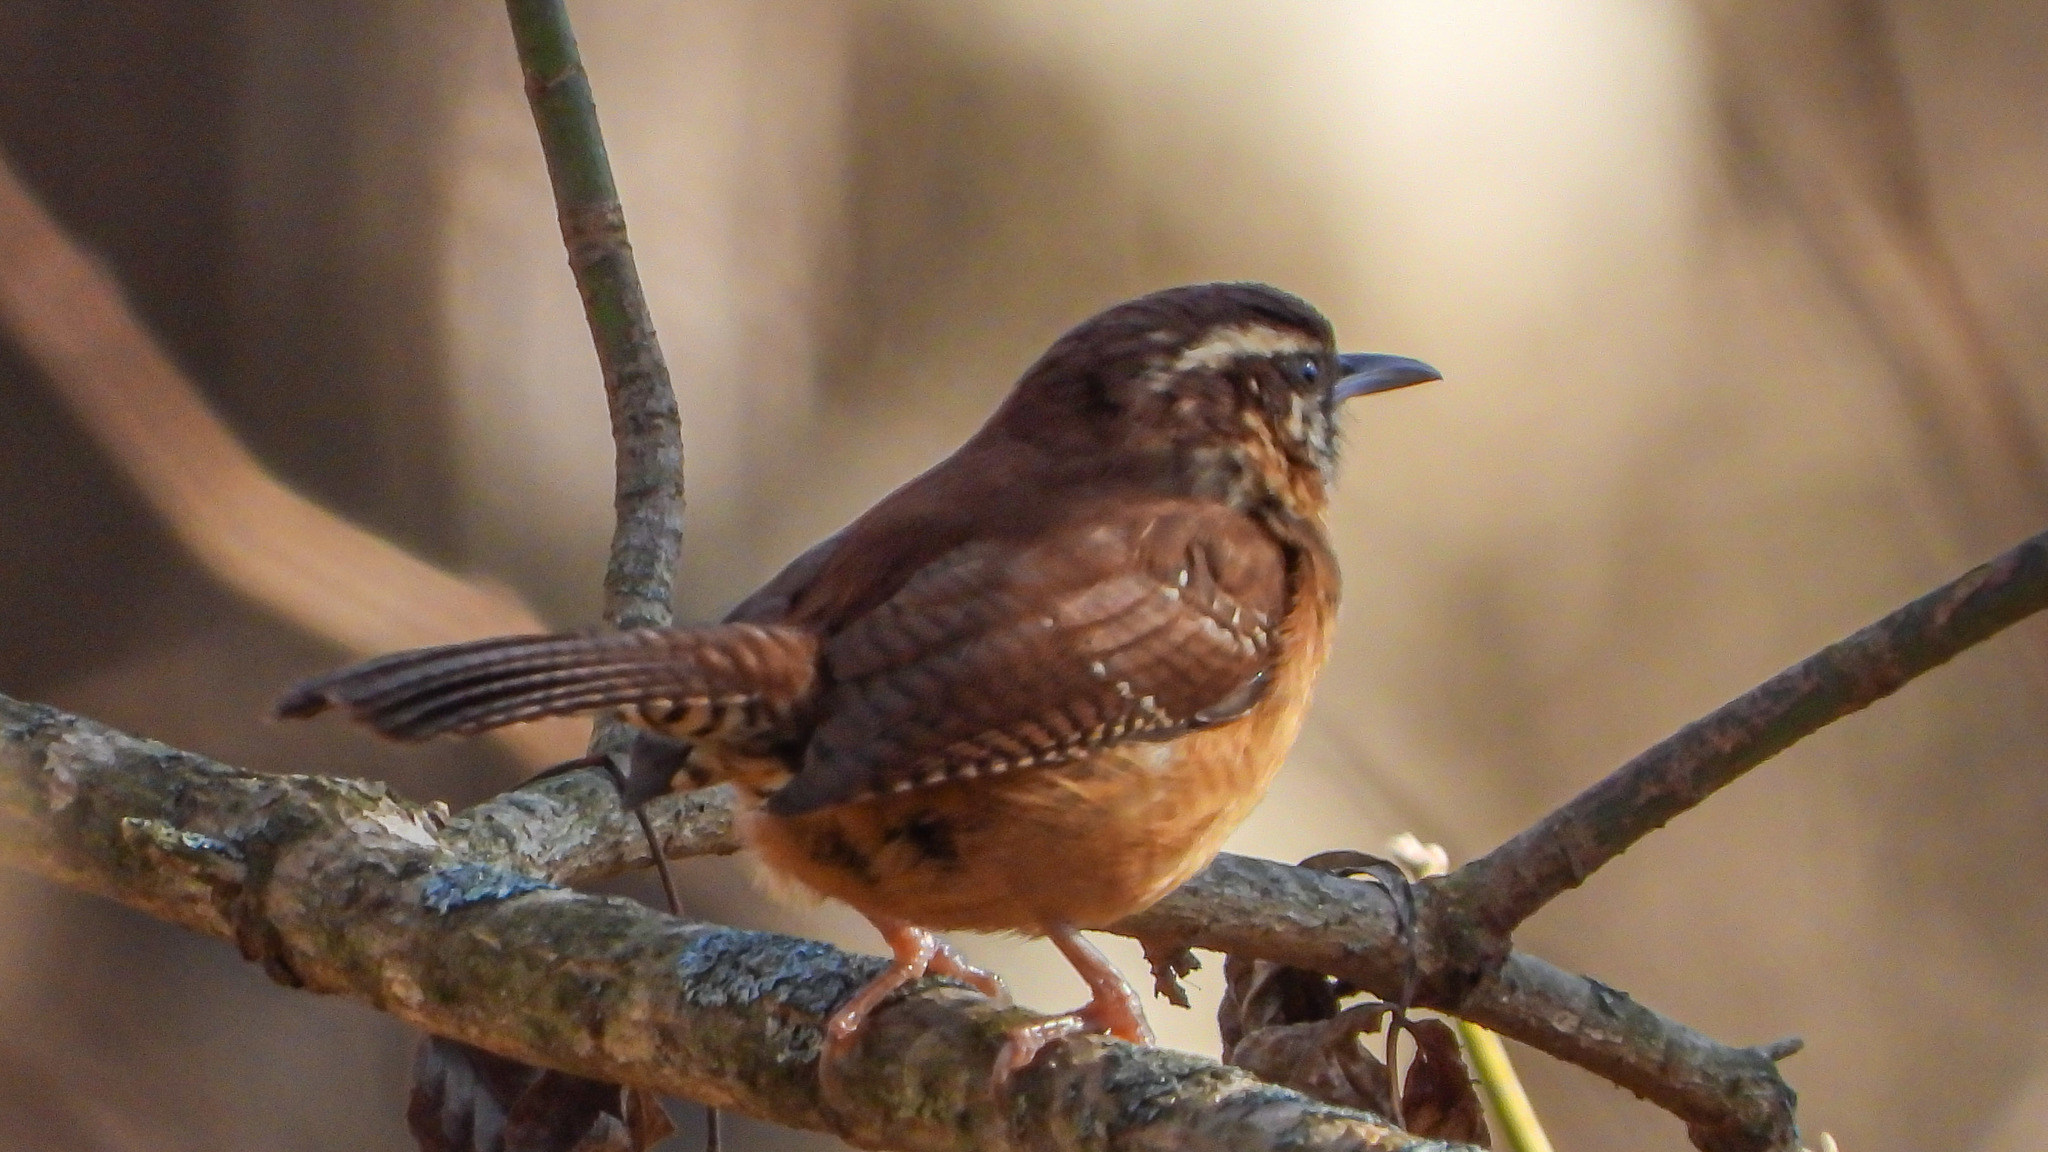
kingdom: Animalia
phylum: Chordata
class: Aves
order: Passeriformes
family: Troglodytidae
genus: Thryothorus
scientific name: Thryothorus ludovicianus
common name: Carolina wren
